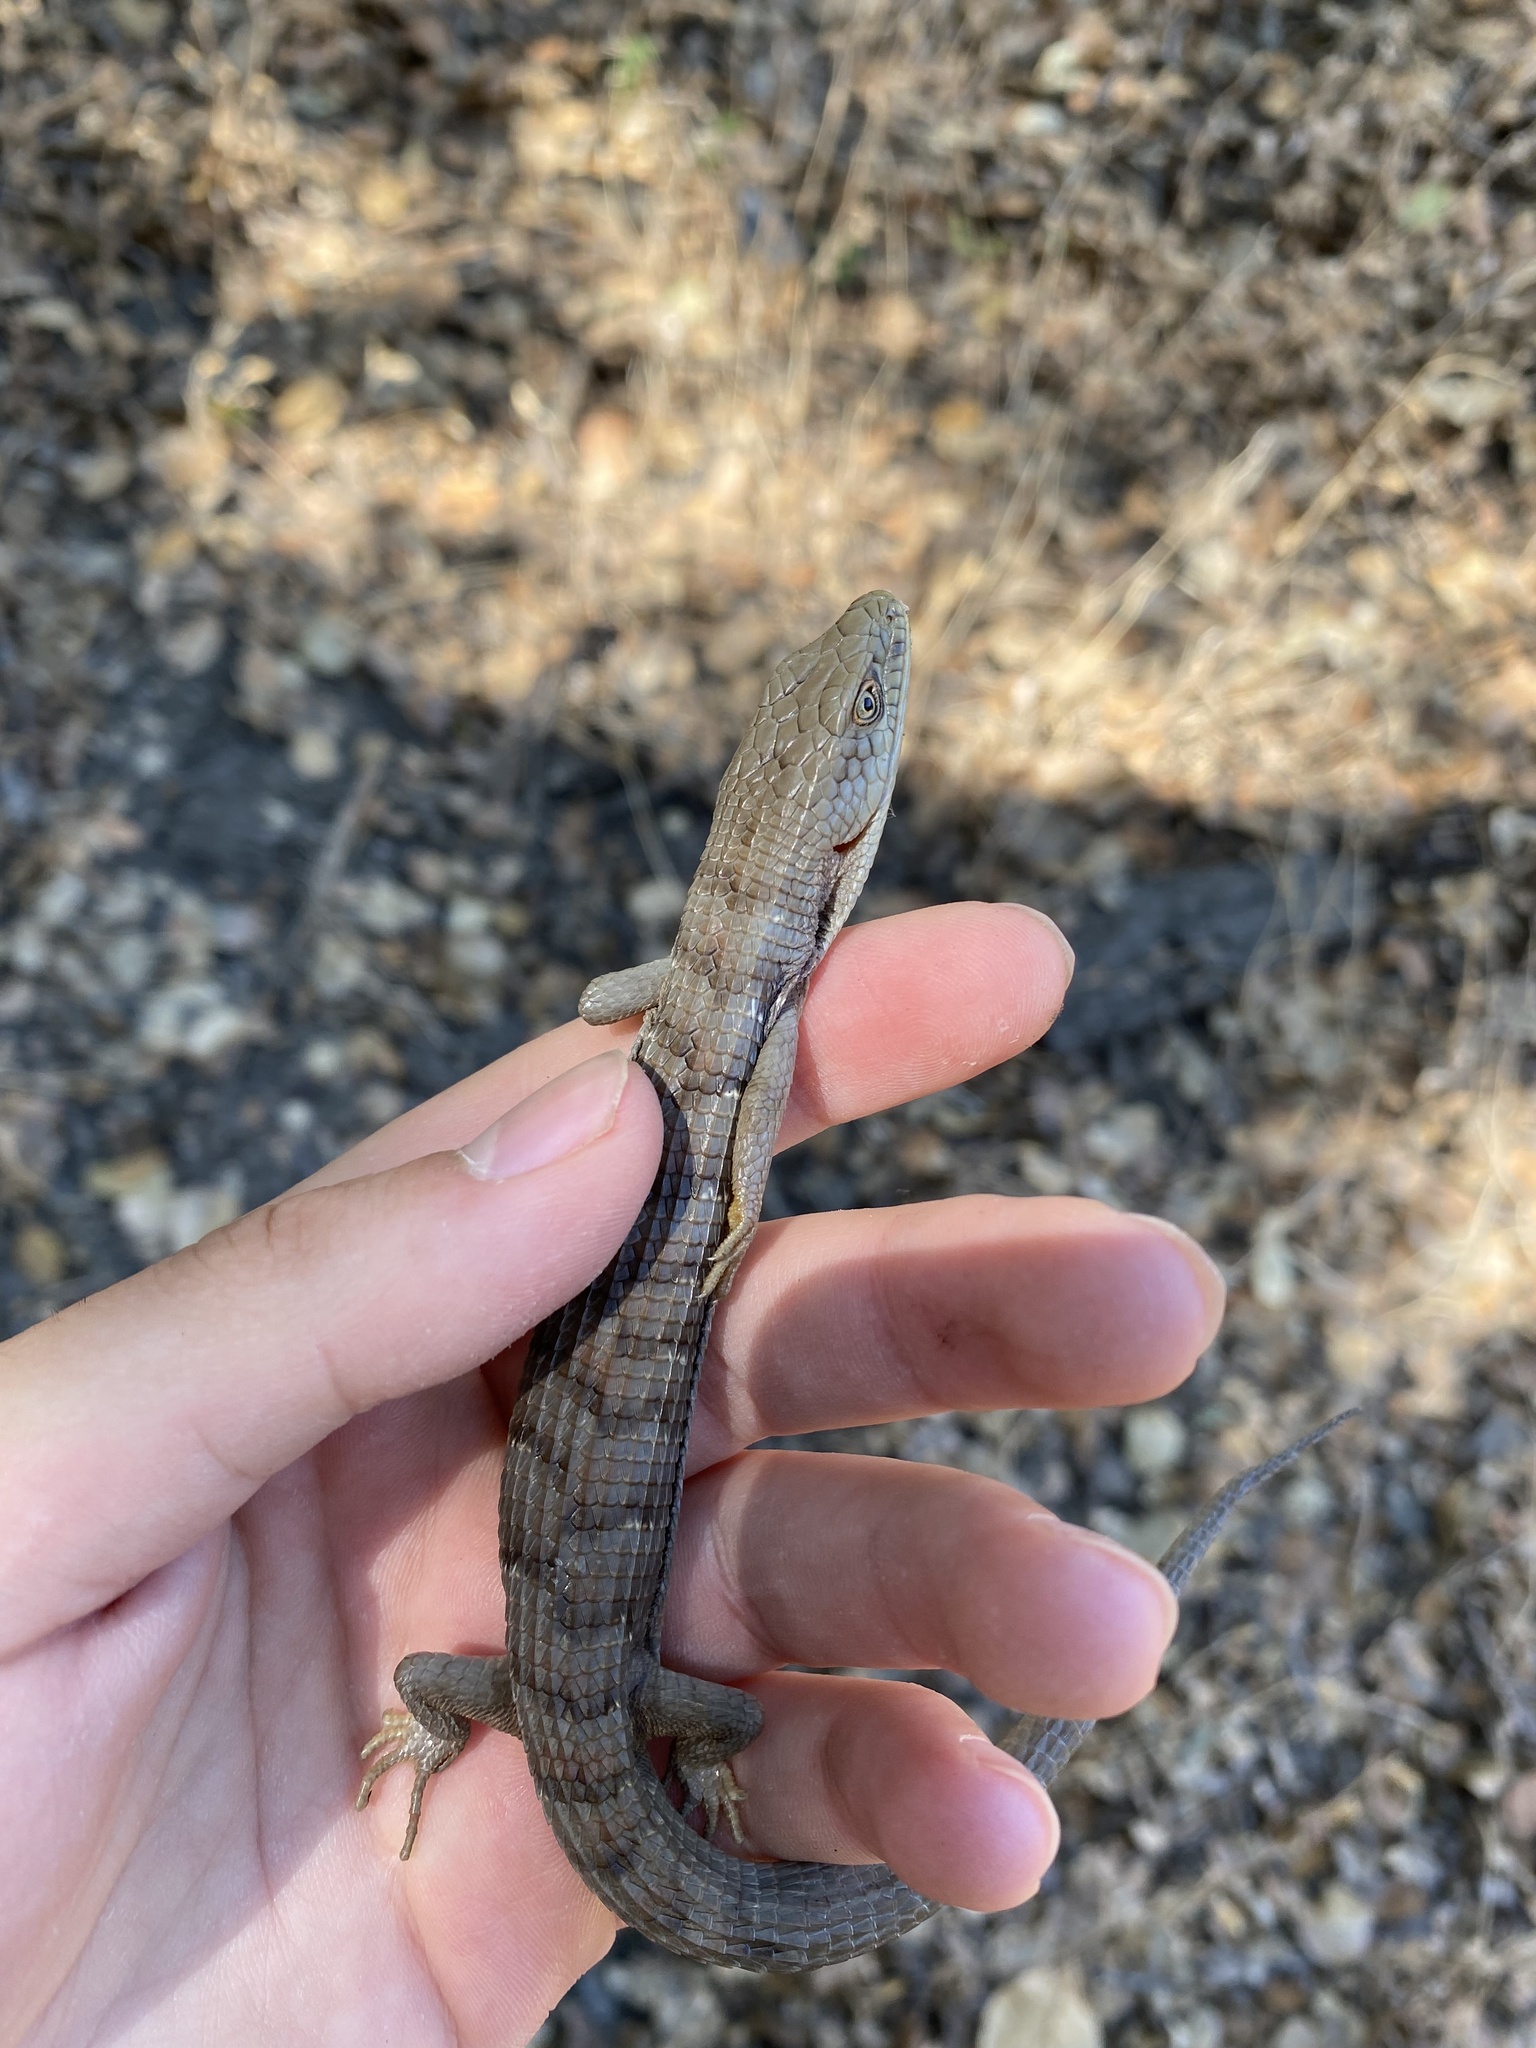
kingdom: Animalia
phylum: Chordata
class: Squamata
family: Anguidae
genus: Elgaria
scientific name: Elgaria multicarinata
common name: Southern alligator lizard
